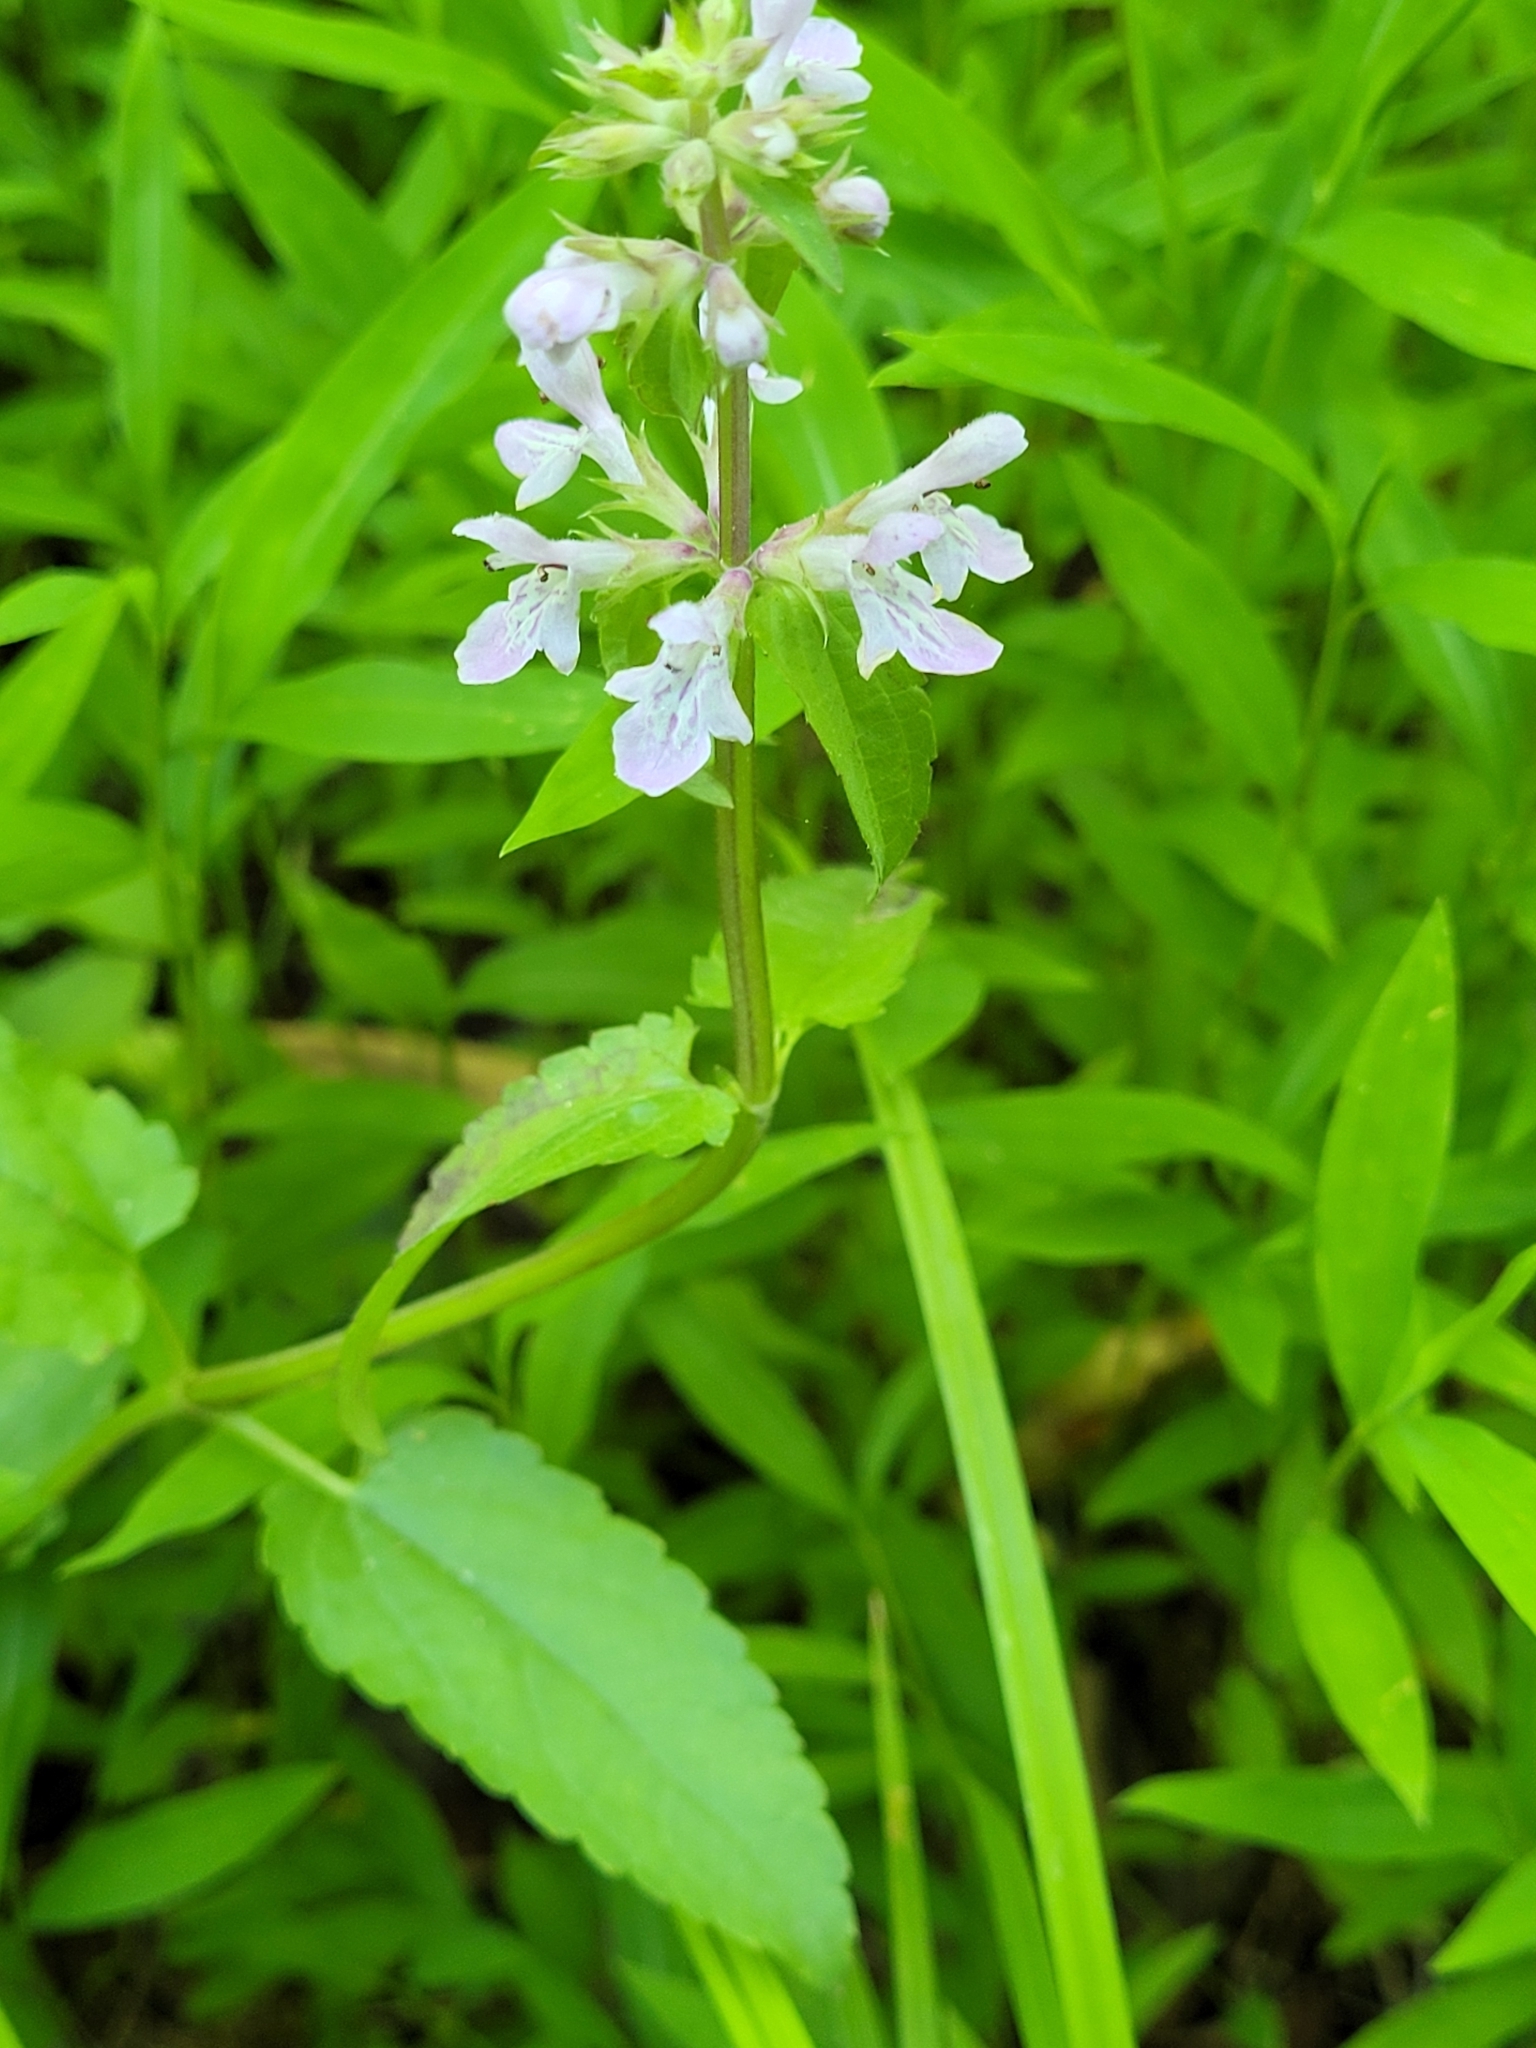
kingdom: Plantae
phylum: Tracheophyta
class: Magnoliopsida
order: Lamiales
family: Lamiaceae
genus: Stachys
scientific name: Stachys floridana
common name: Florida betony
